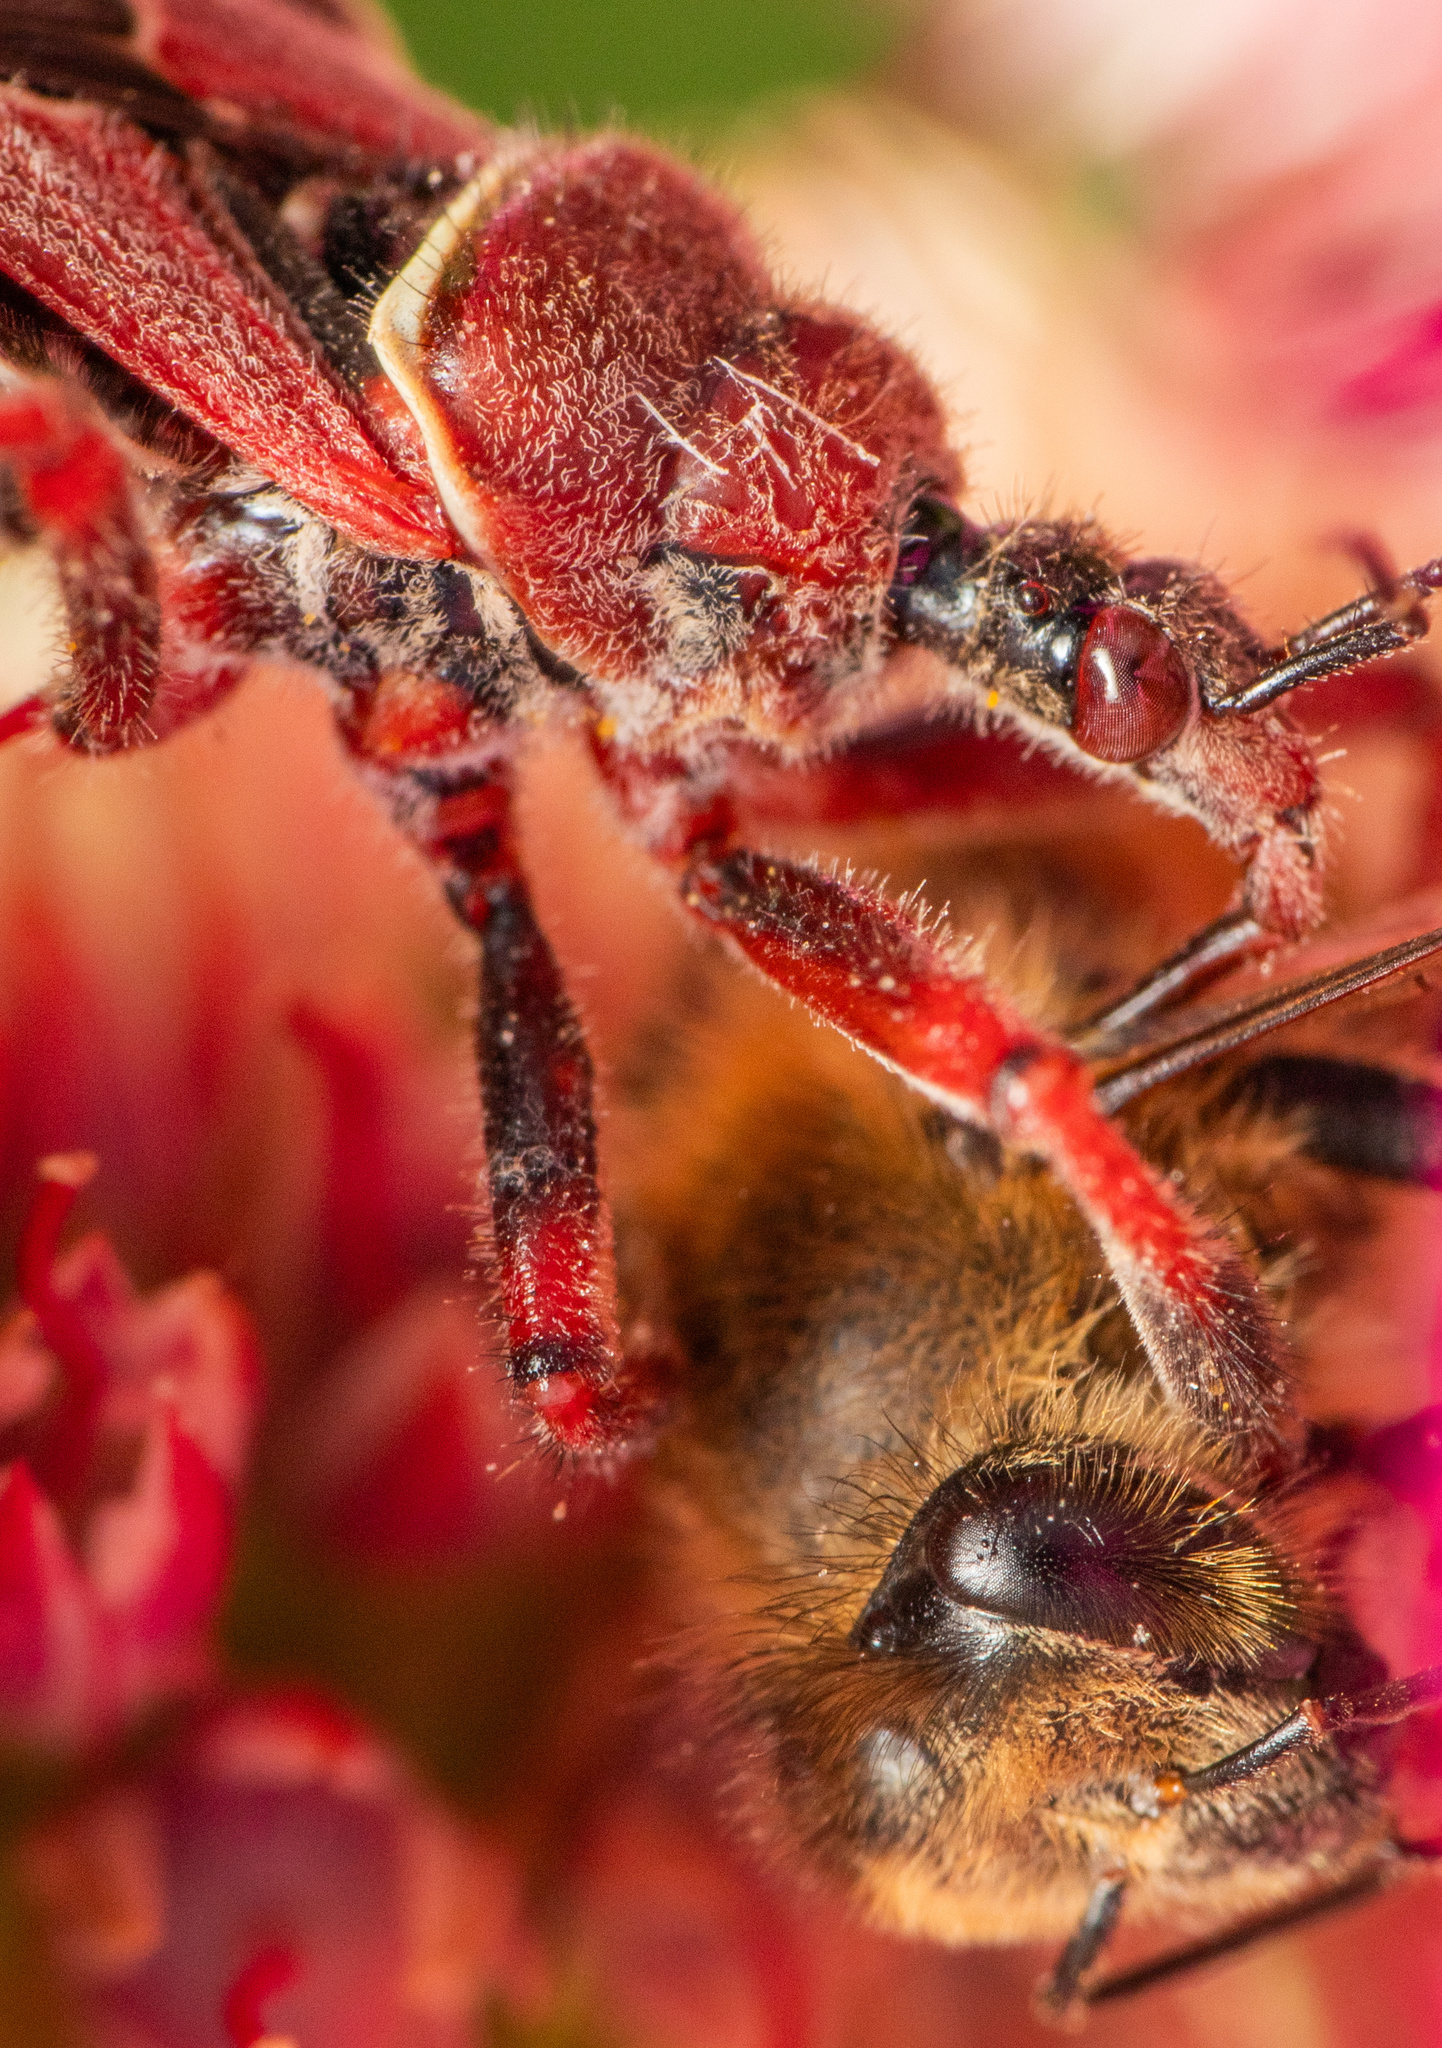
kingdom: Animalia
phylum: Arthropoda
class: Insecta
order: Hemiptera
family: Reduviidae
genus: Apiomerus
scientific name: Apiomerus spissipes
